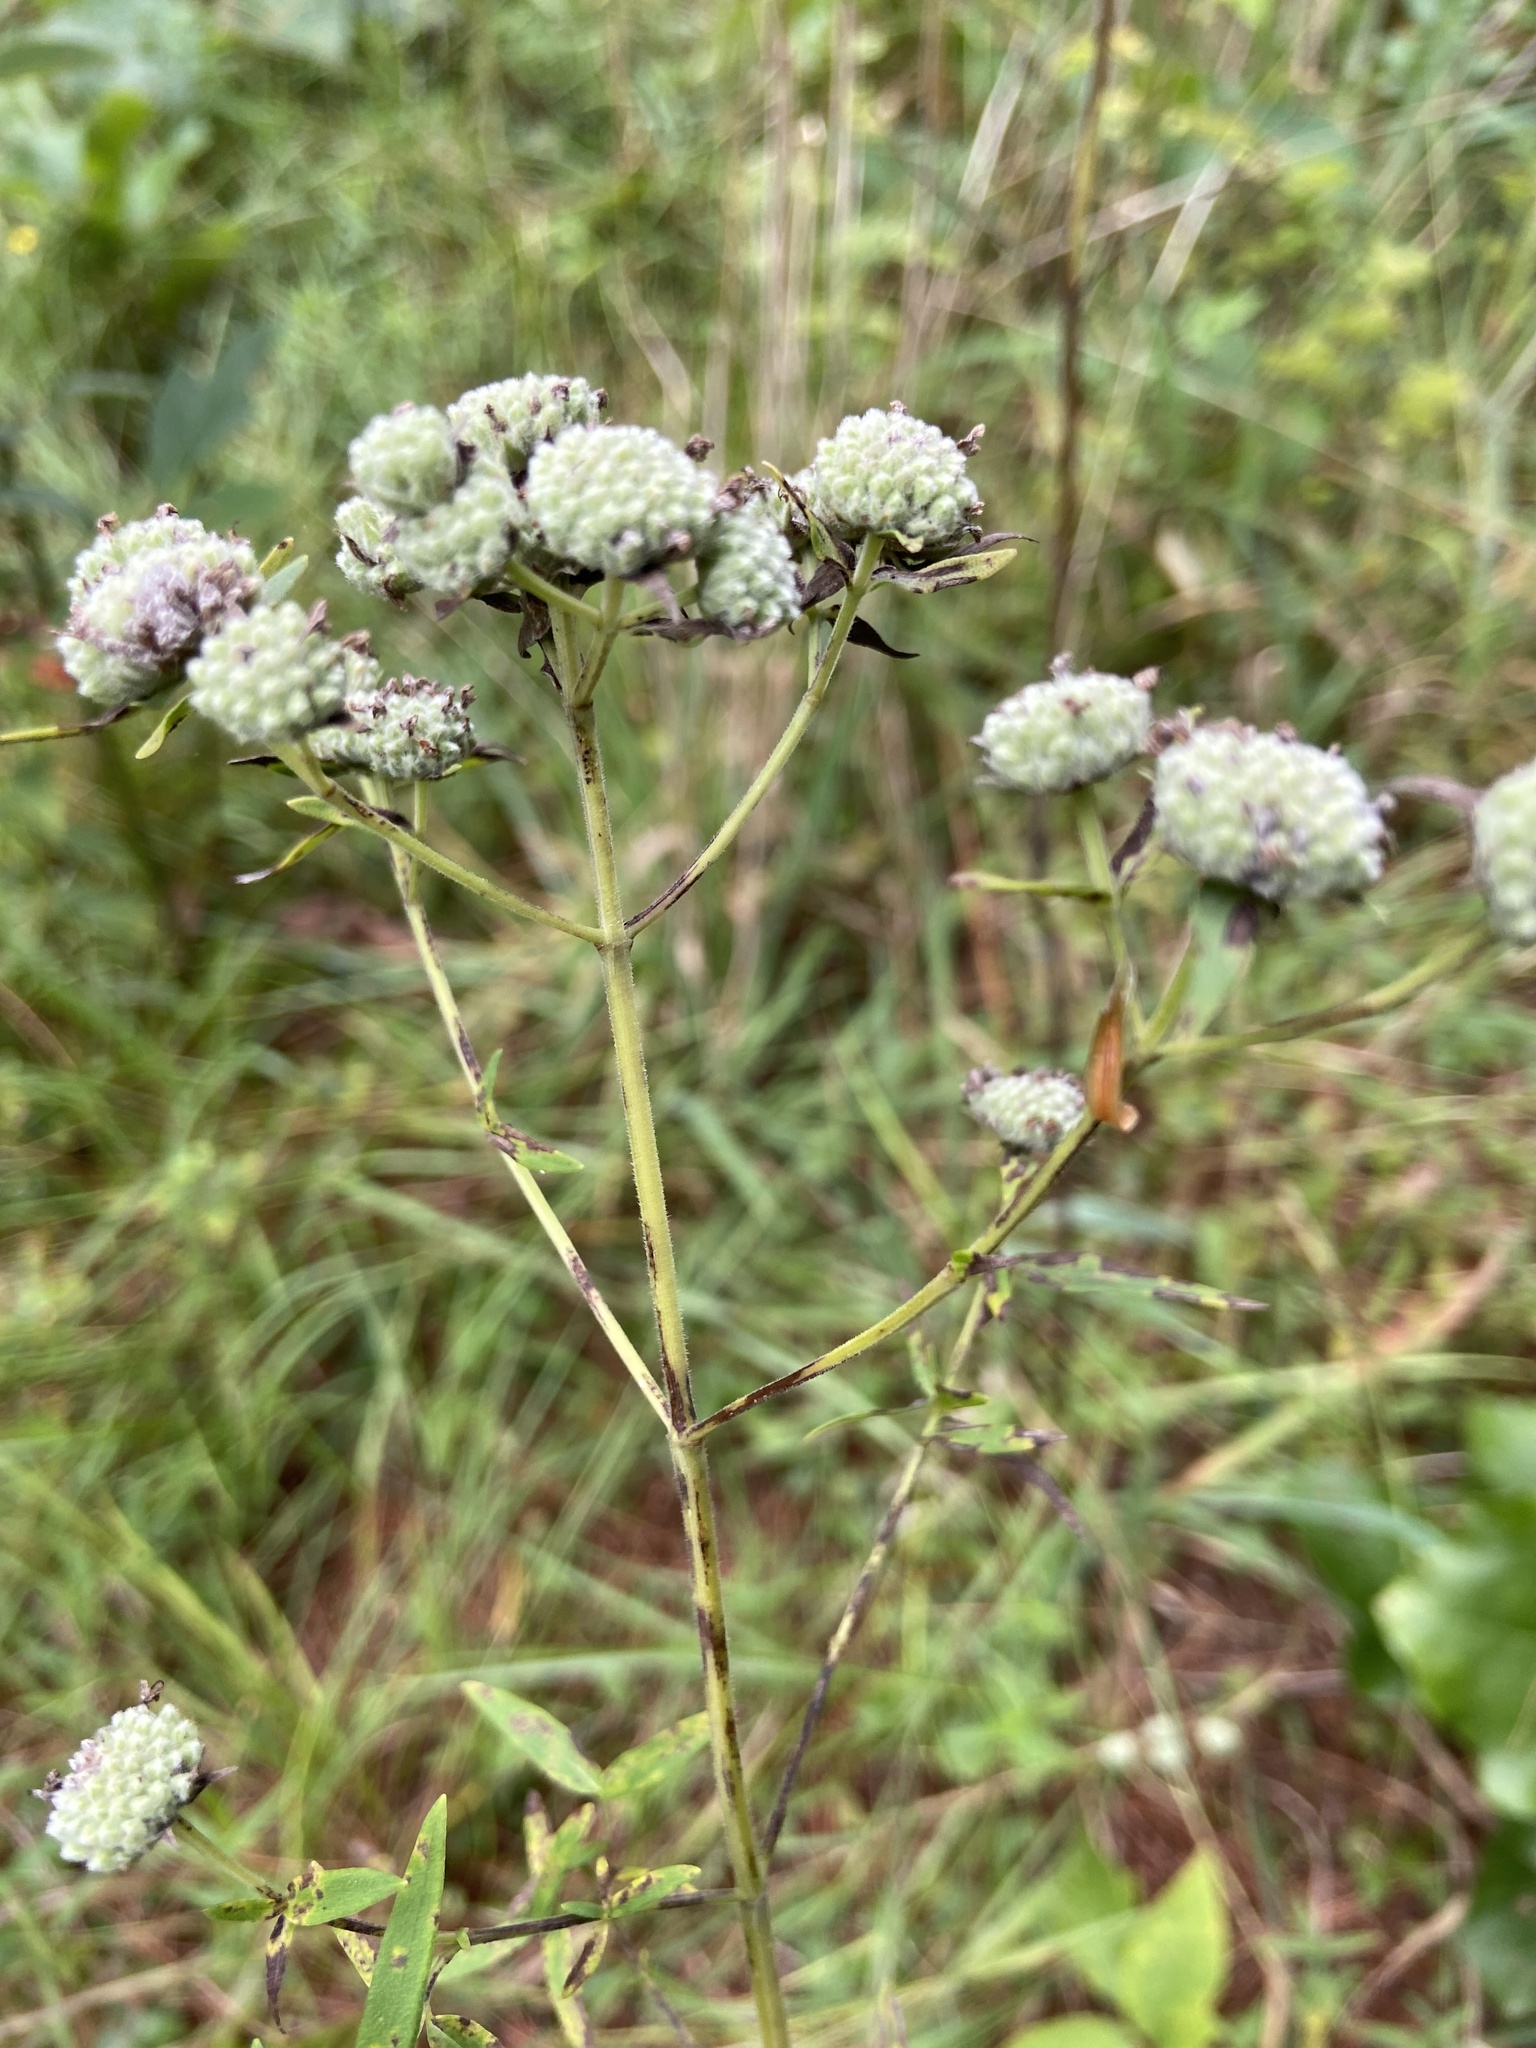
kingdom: Plantae
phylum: Tracheophyta
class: Magnoliopsida
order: Lamiales
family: Lamiaceae
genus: Pycnanthemum
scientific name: Pycnanthemum tenuifolium
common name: Narrow-leaf mountain-mint
